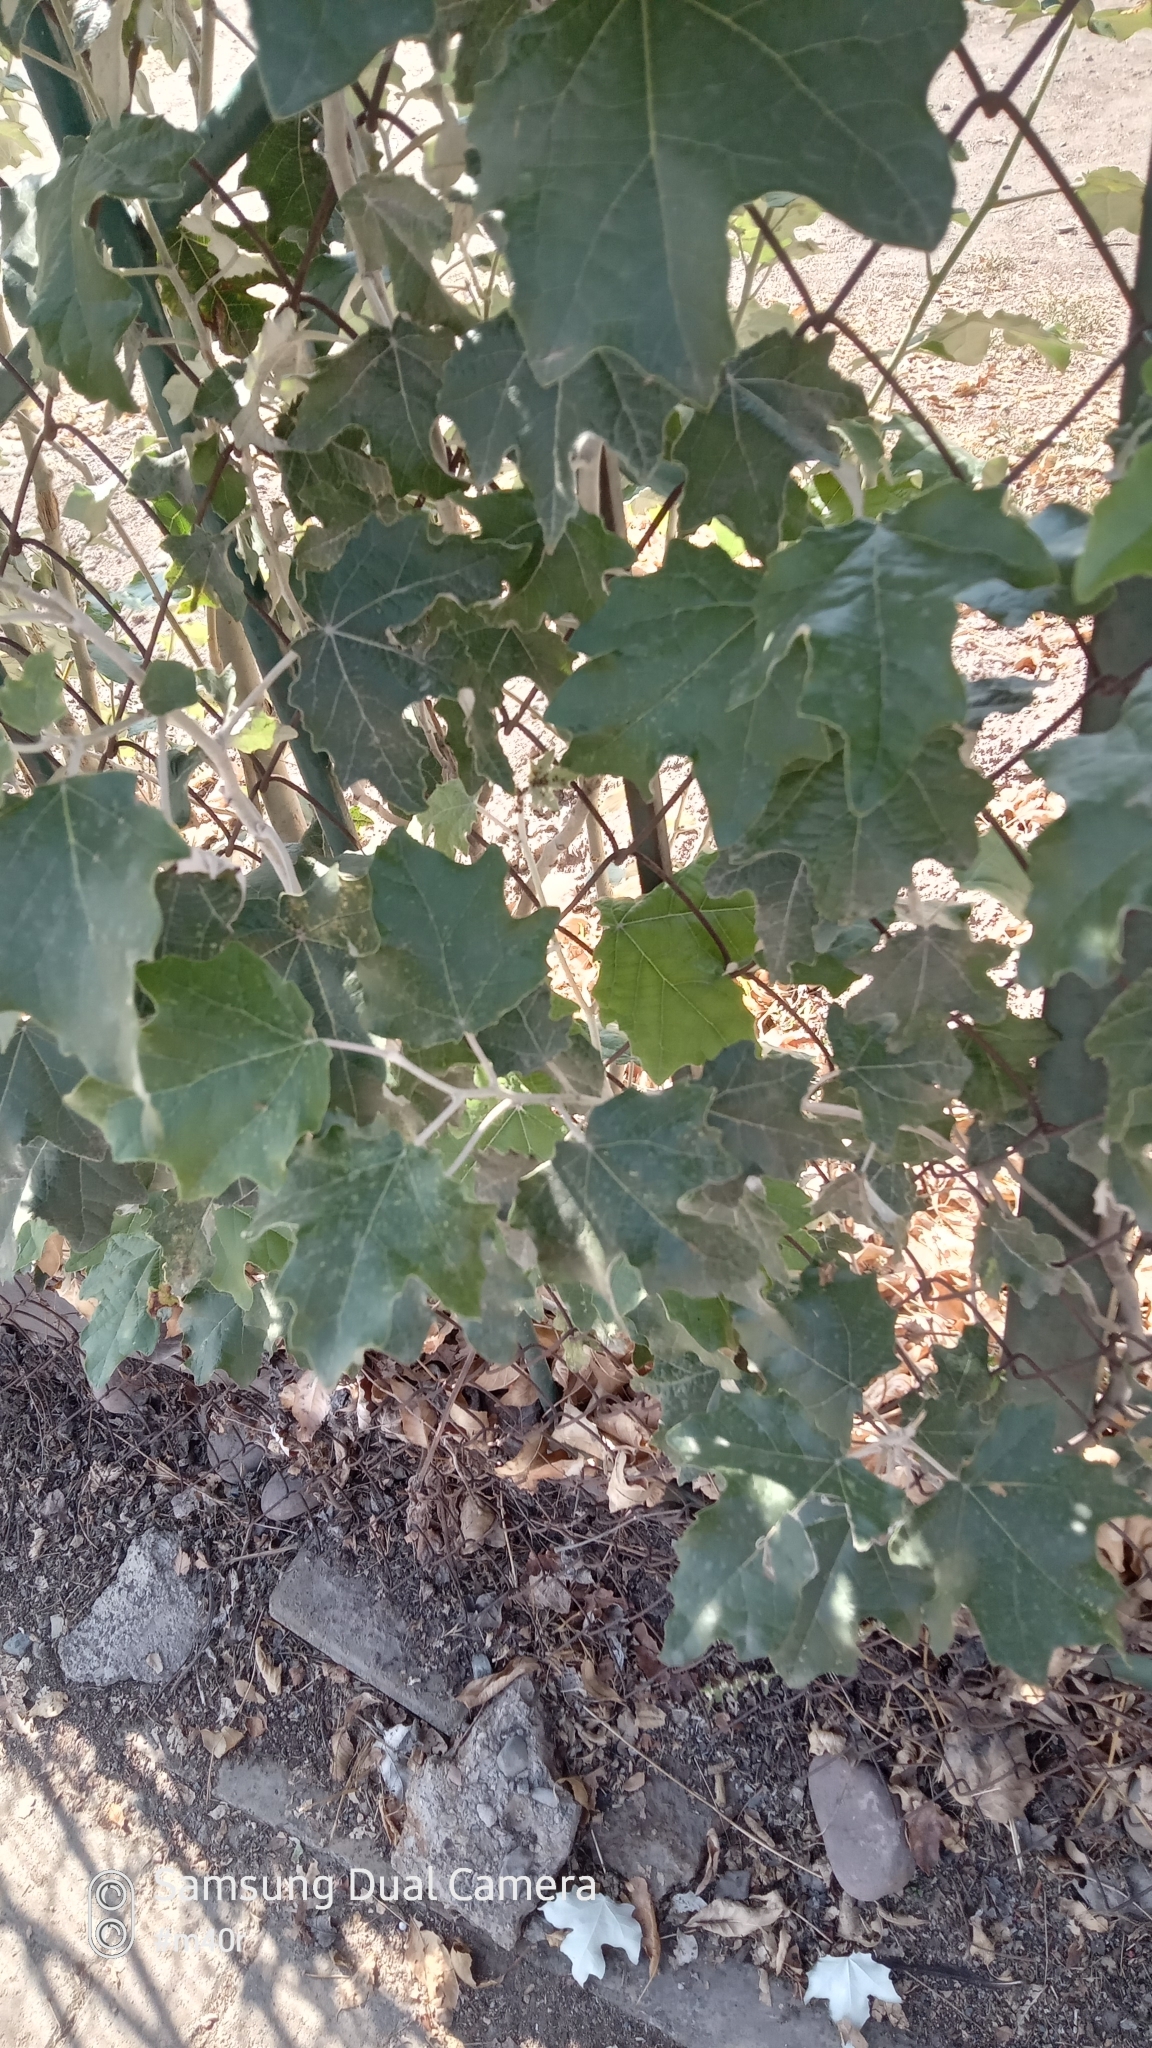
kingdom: Plantae
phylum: Tracheophyta
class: Magnoliopsida
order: Malpighiales
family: Salicaceae
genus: Populus
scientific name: Populus alba
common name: White poplar
